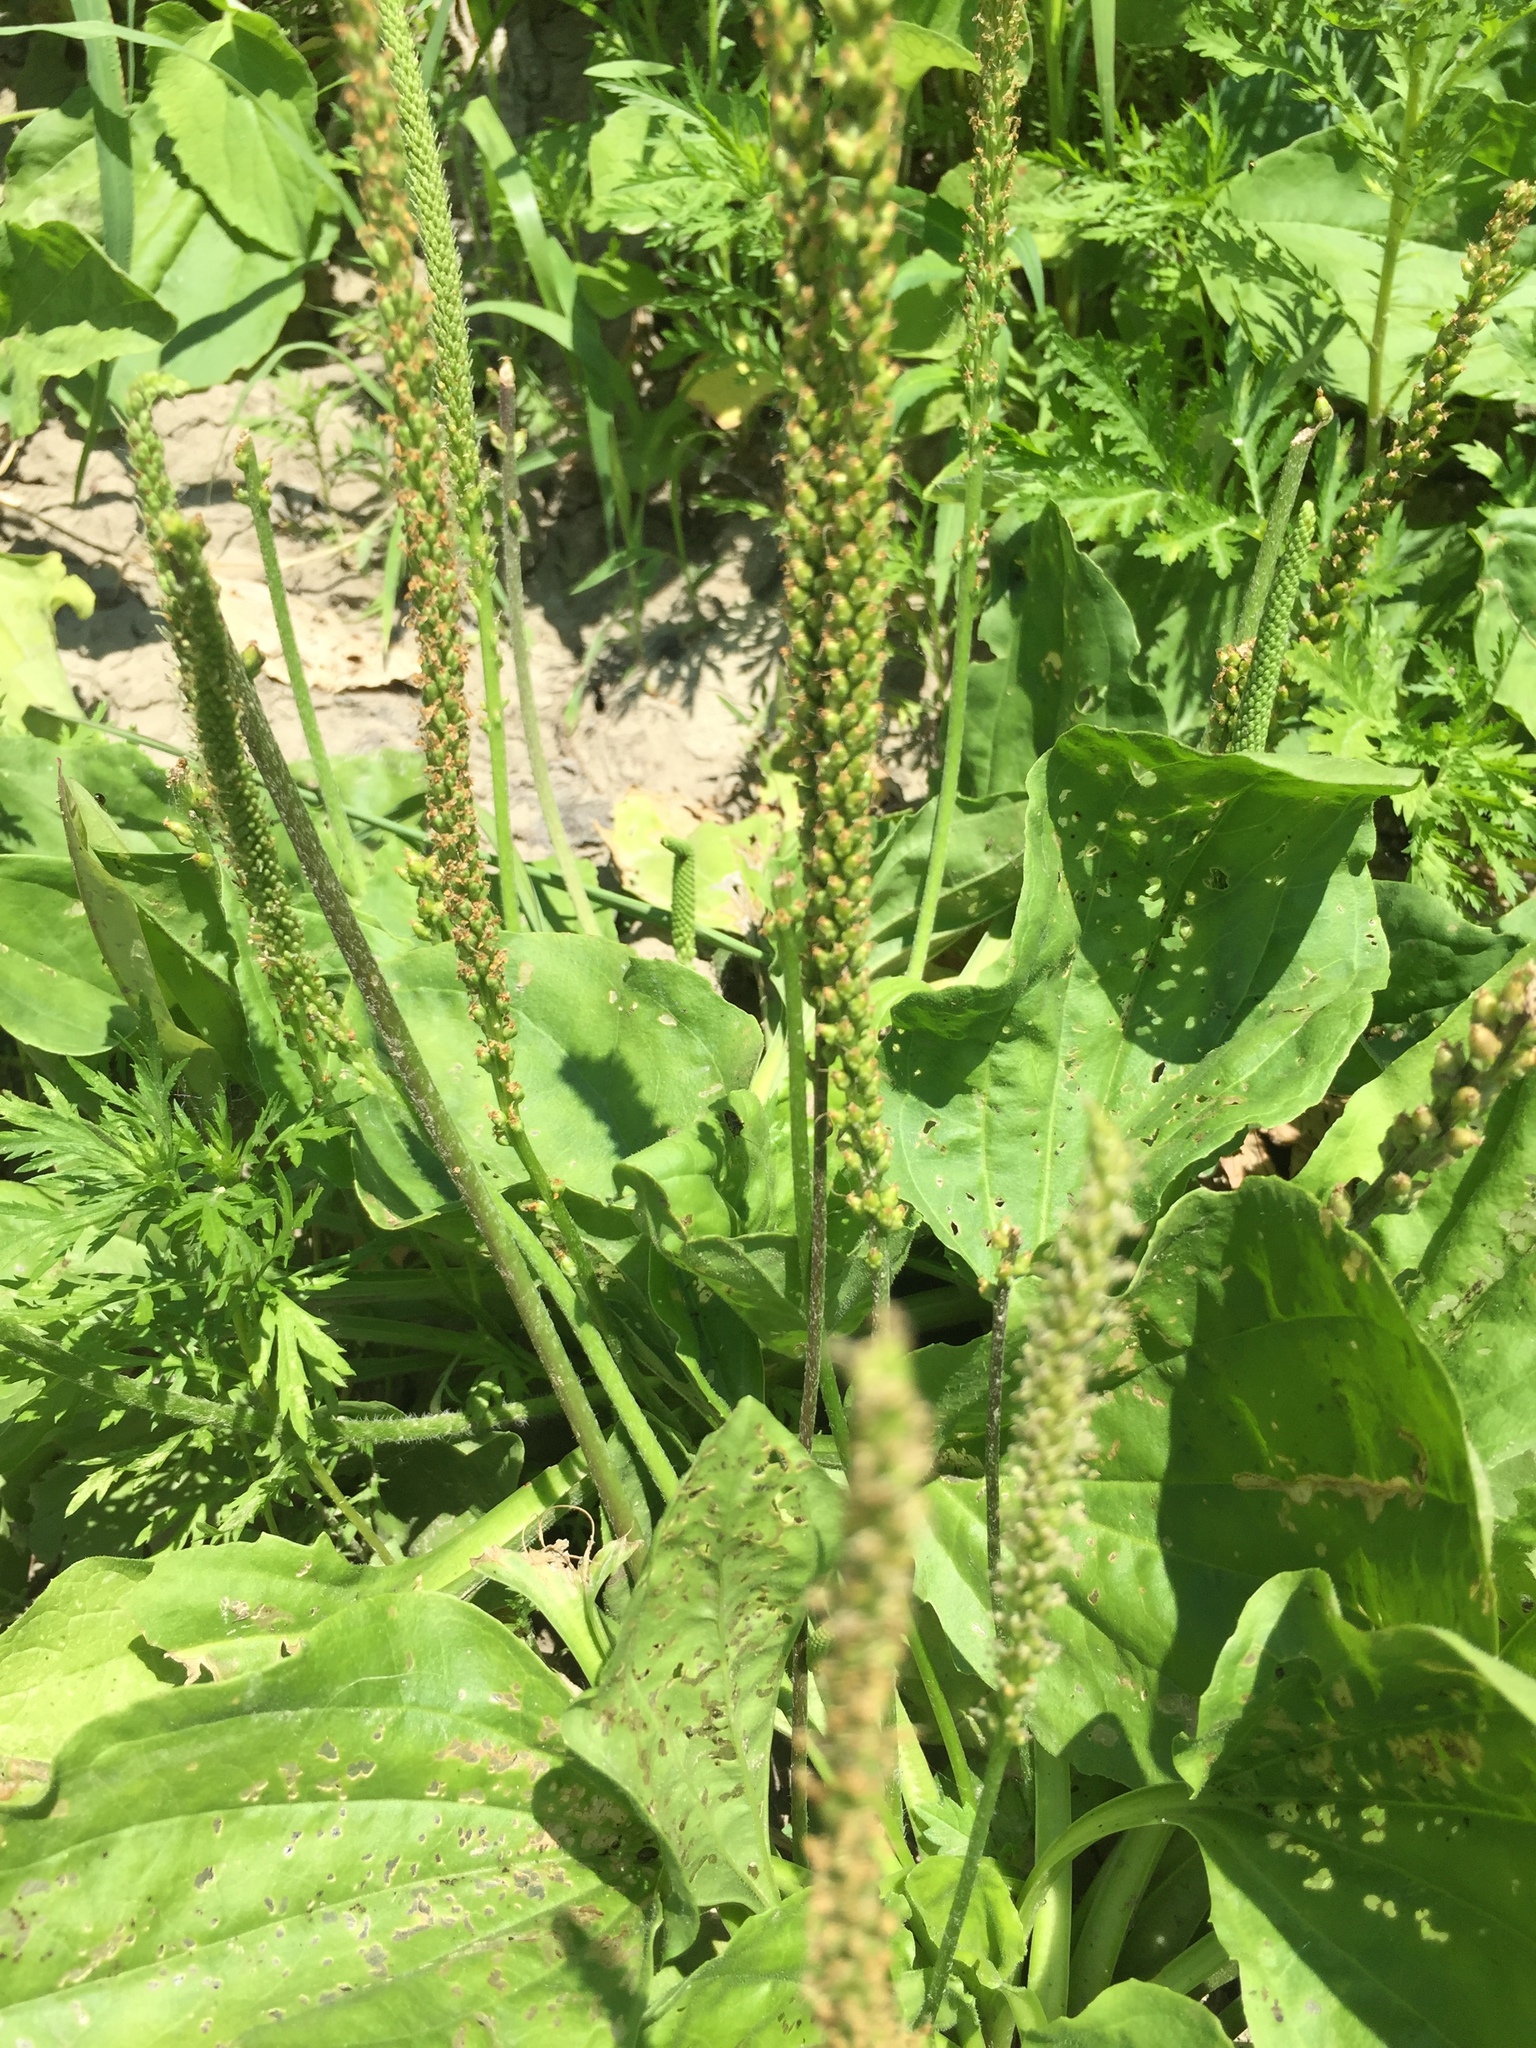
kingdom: Plantae
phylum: Tracheophyta
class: Magnoliopsida
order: Lamiales
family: Plantaginaceae
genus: Plantago
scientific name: Plantago major
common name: Common plantain
